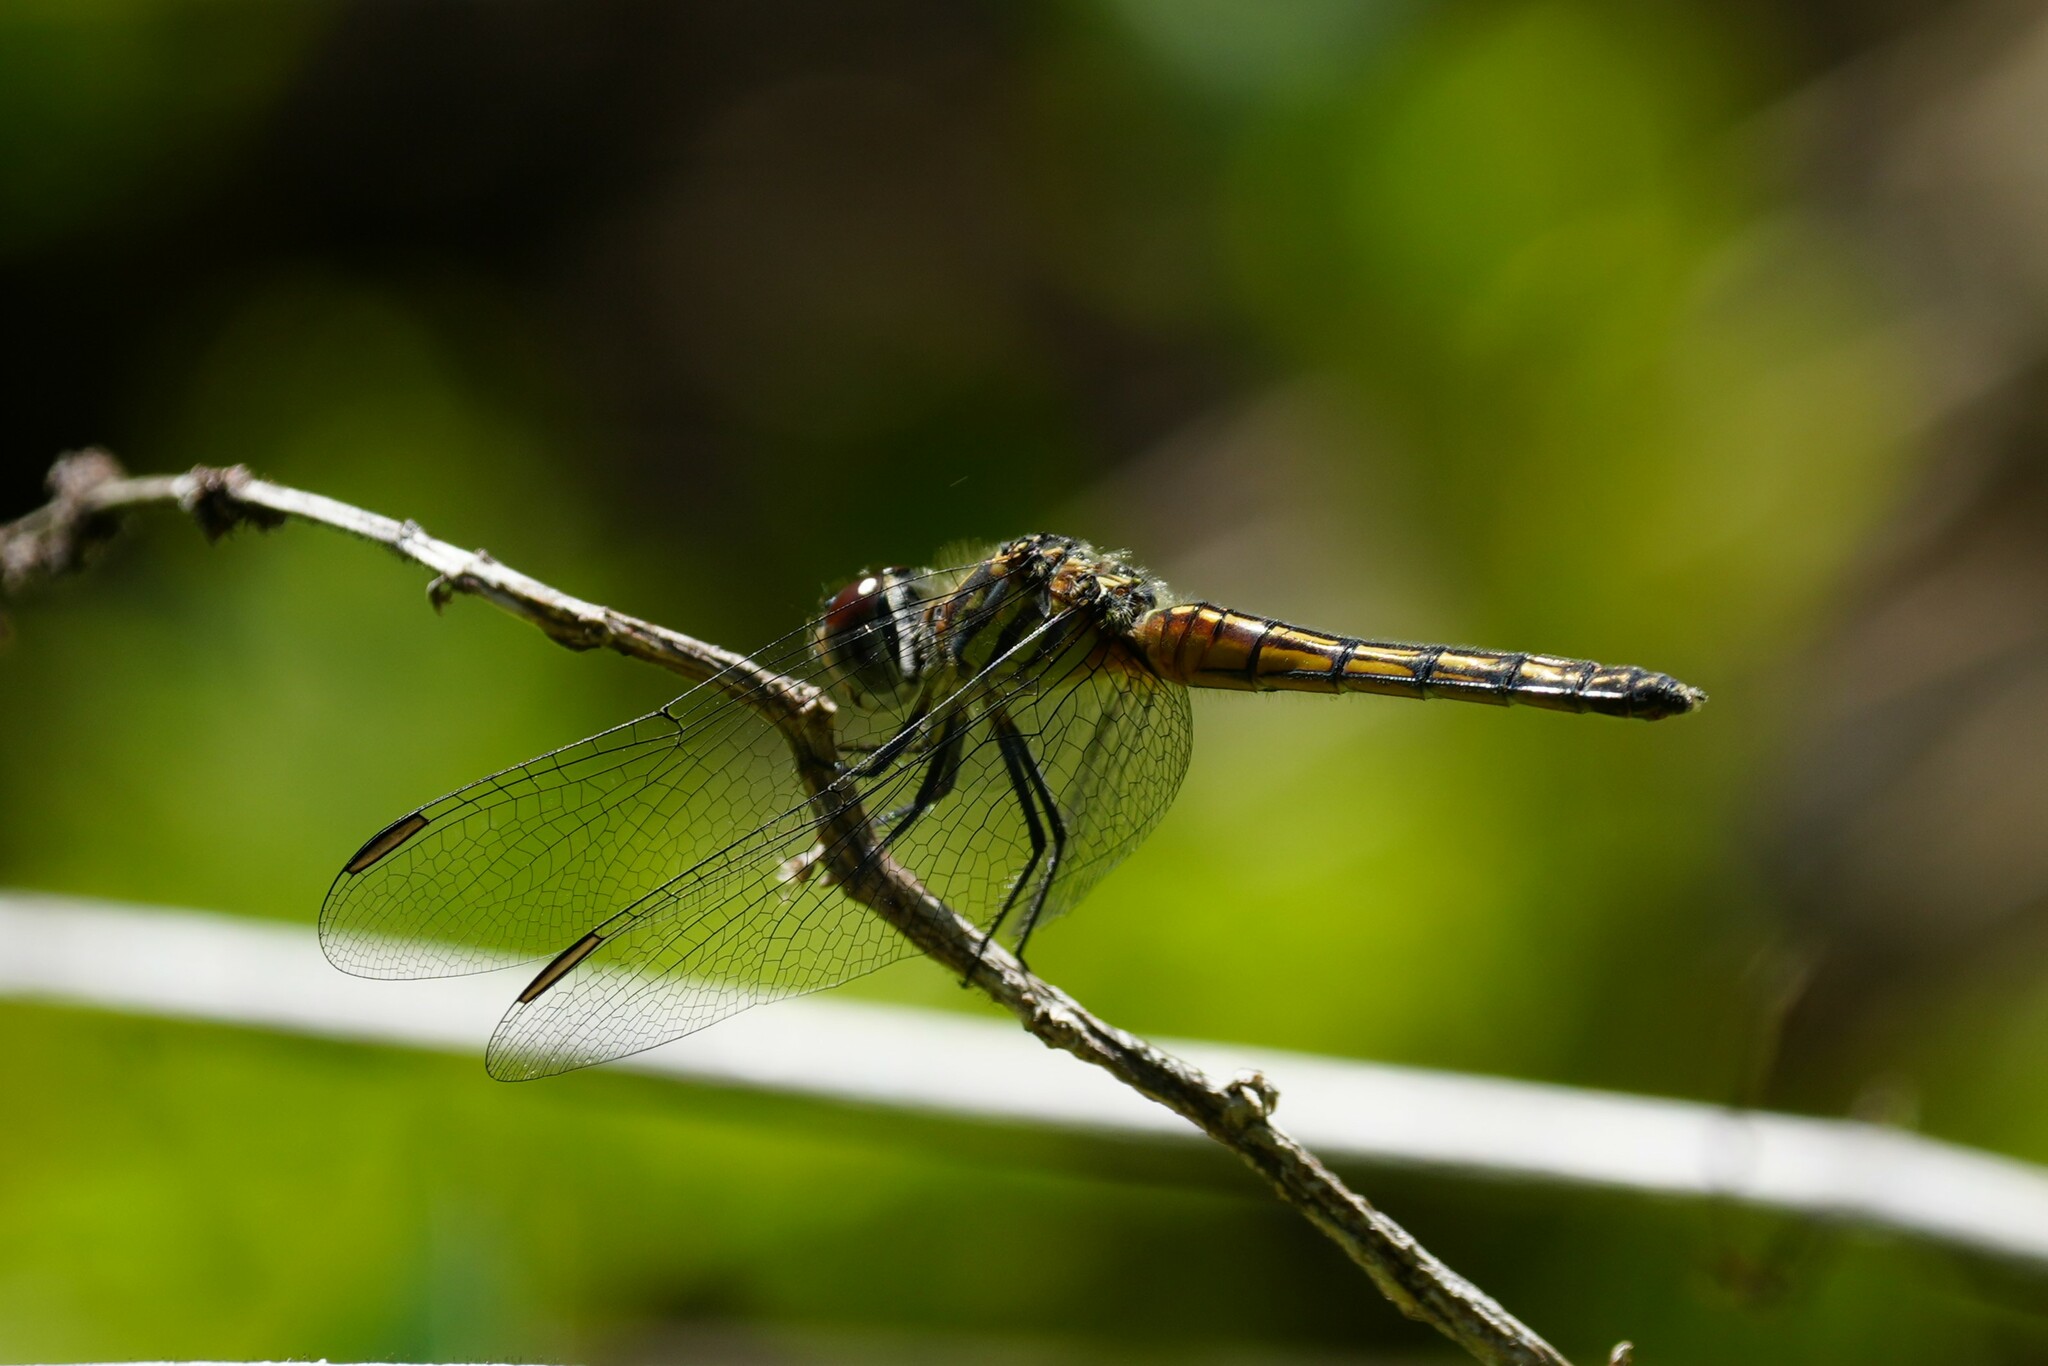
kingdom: Animalia
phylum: Arthropoda
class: Insecta
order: Odonata
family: Libellulidae
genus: Pachydiplax
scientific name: Pachydiplax longipennis
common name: Blue dasher
